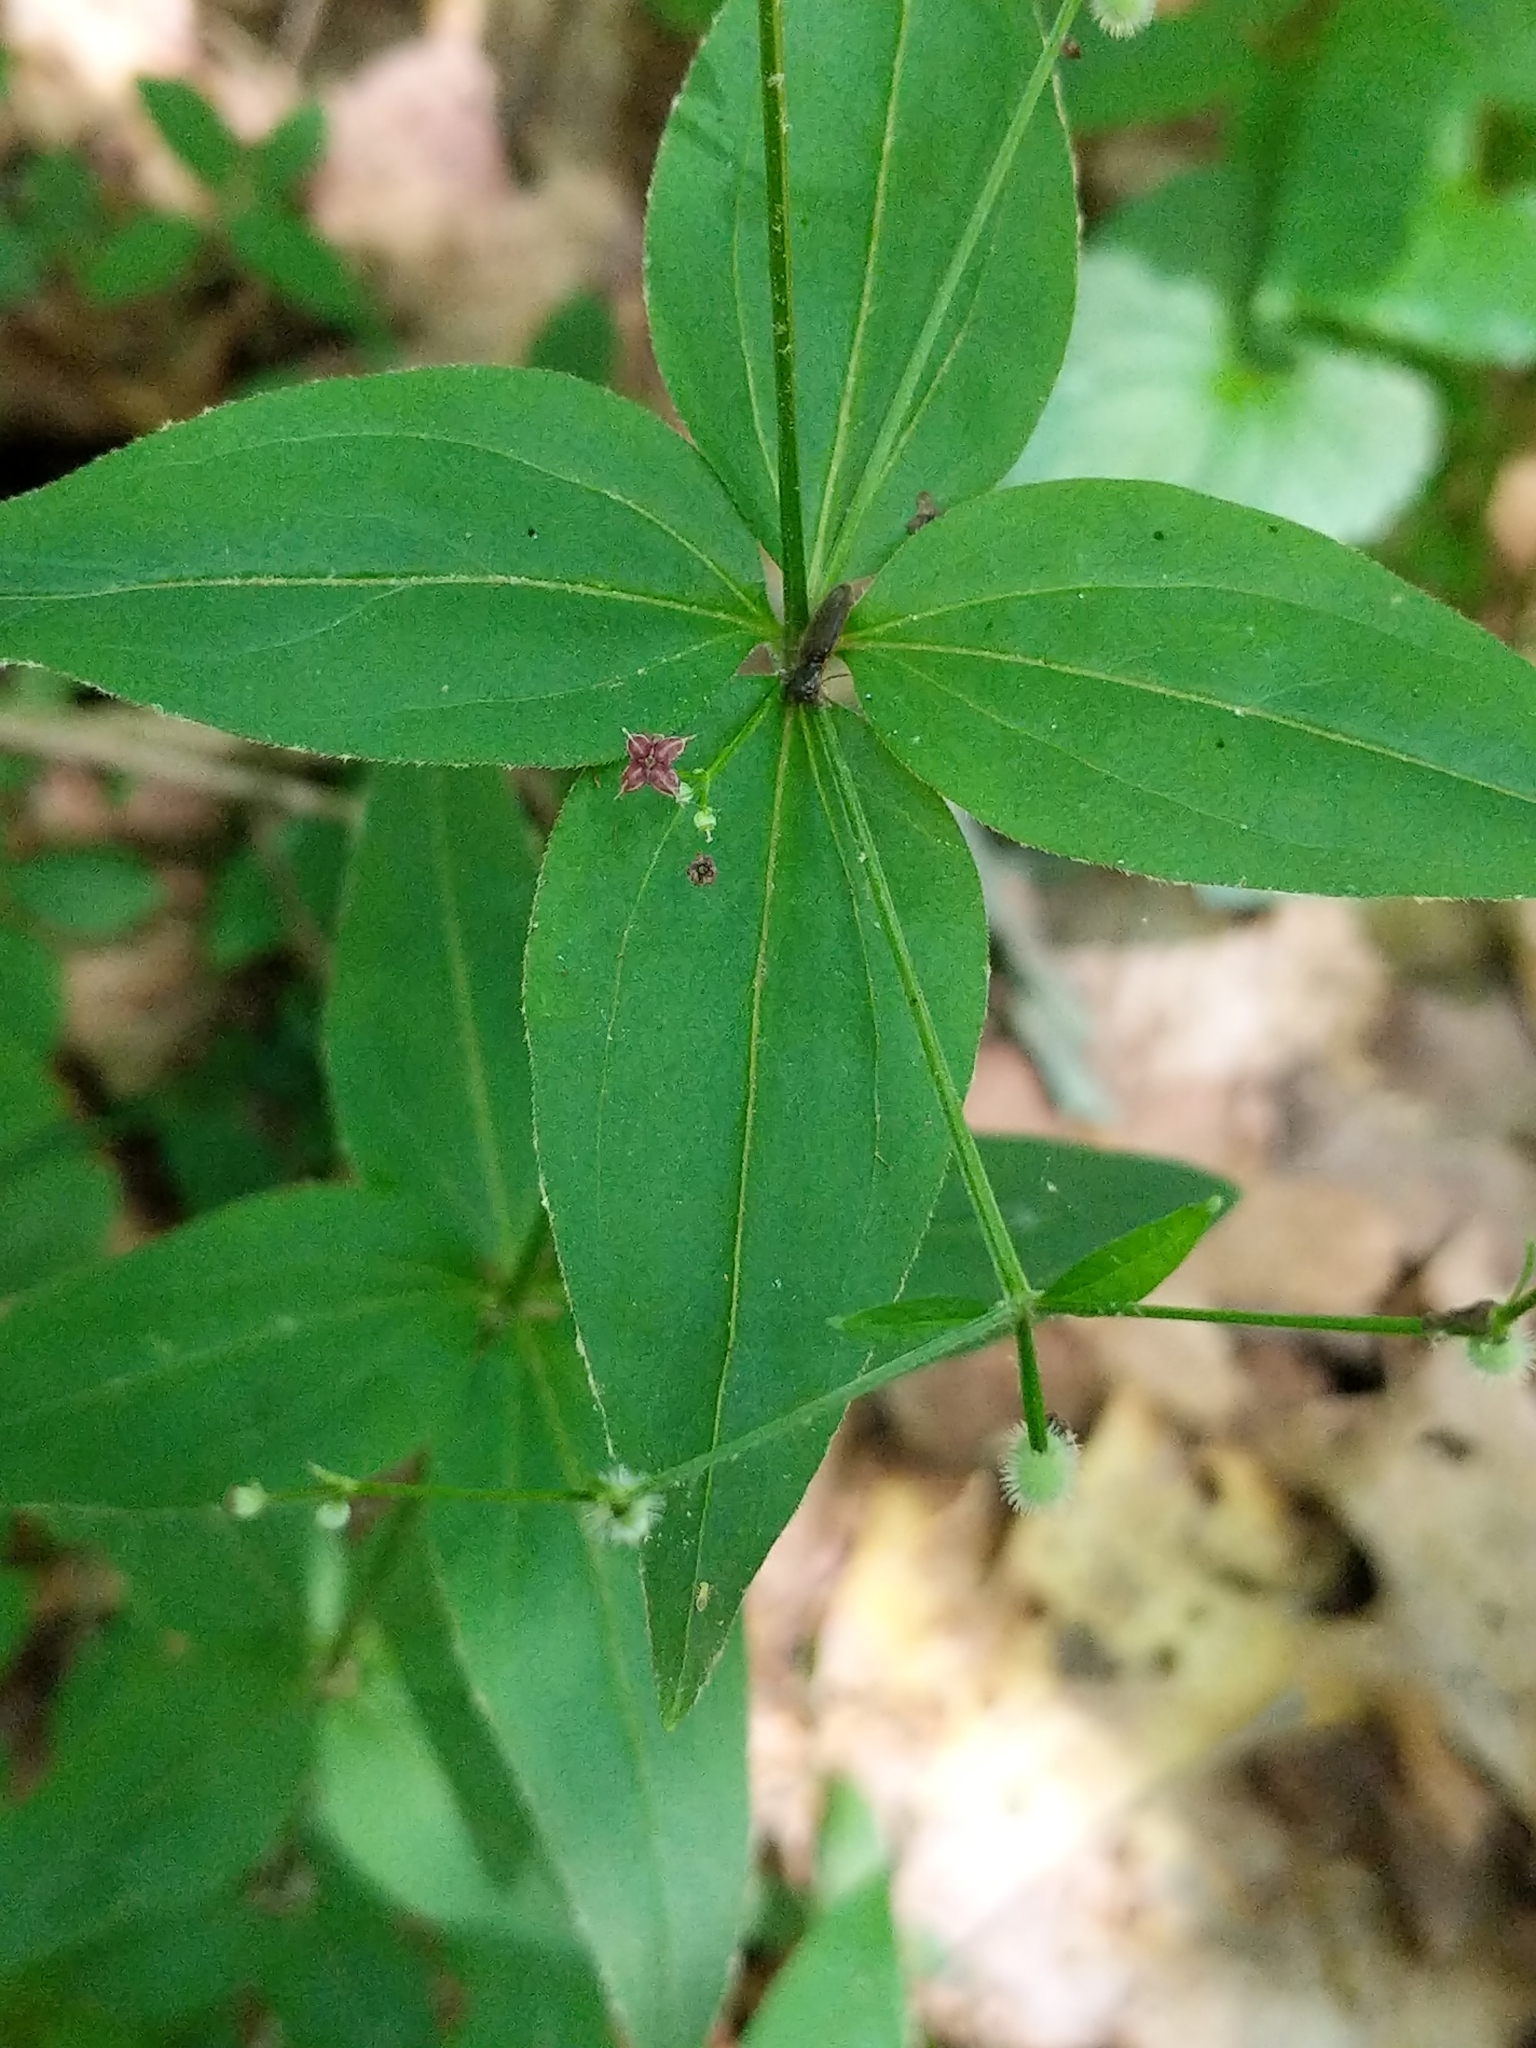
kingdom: Plantae
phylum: Tracheophyta
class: Magnoliopsida
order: Gentianales
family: Rubiaceae
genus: Galium
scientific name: Galium lanceolatum
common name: Lance-leaved wild licorice
